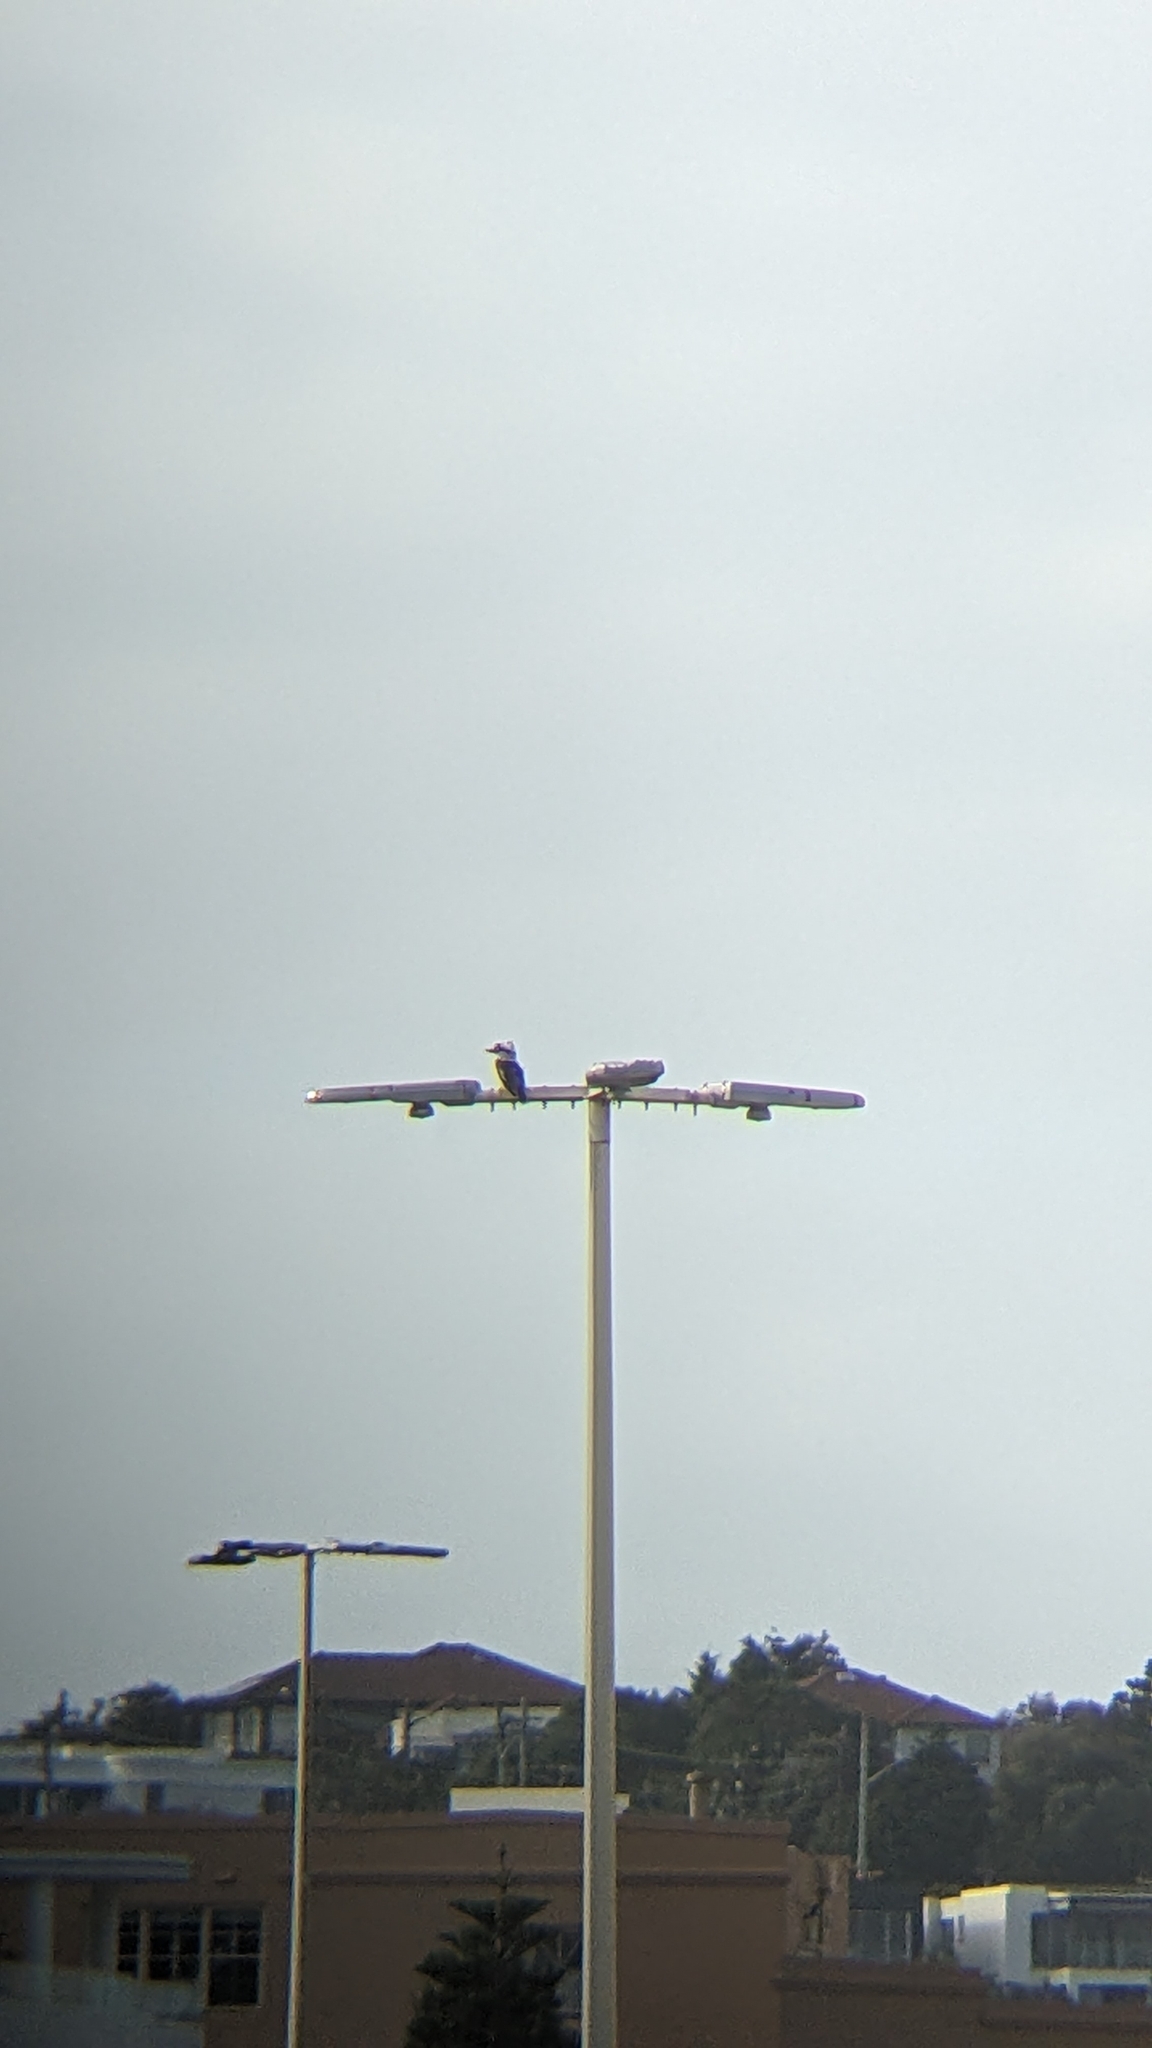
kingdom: Animalia
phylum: Chordata
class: Aves
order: Coraciiformes
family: Alcedinidae
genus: Dacelo
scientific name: Dacelo novaeguineae
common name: Laughing kookaburra
